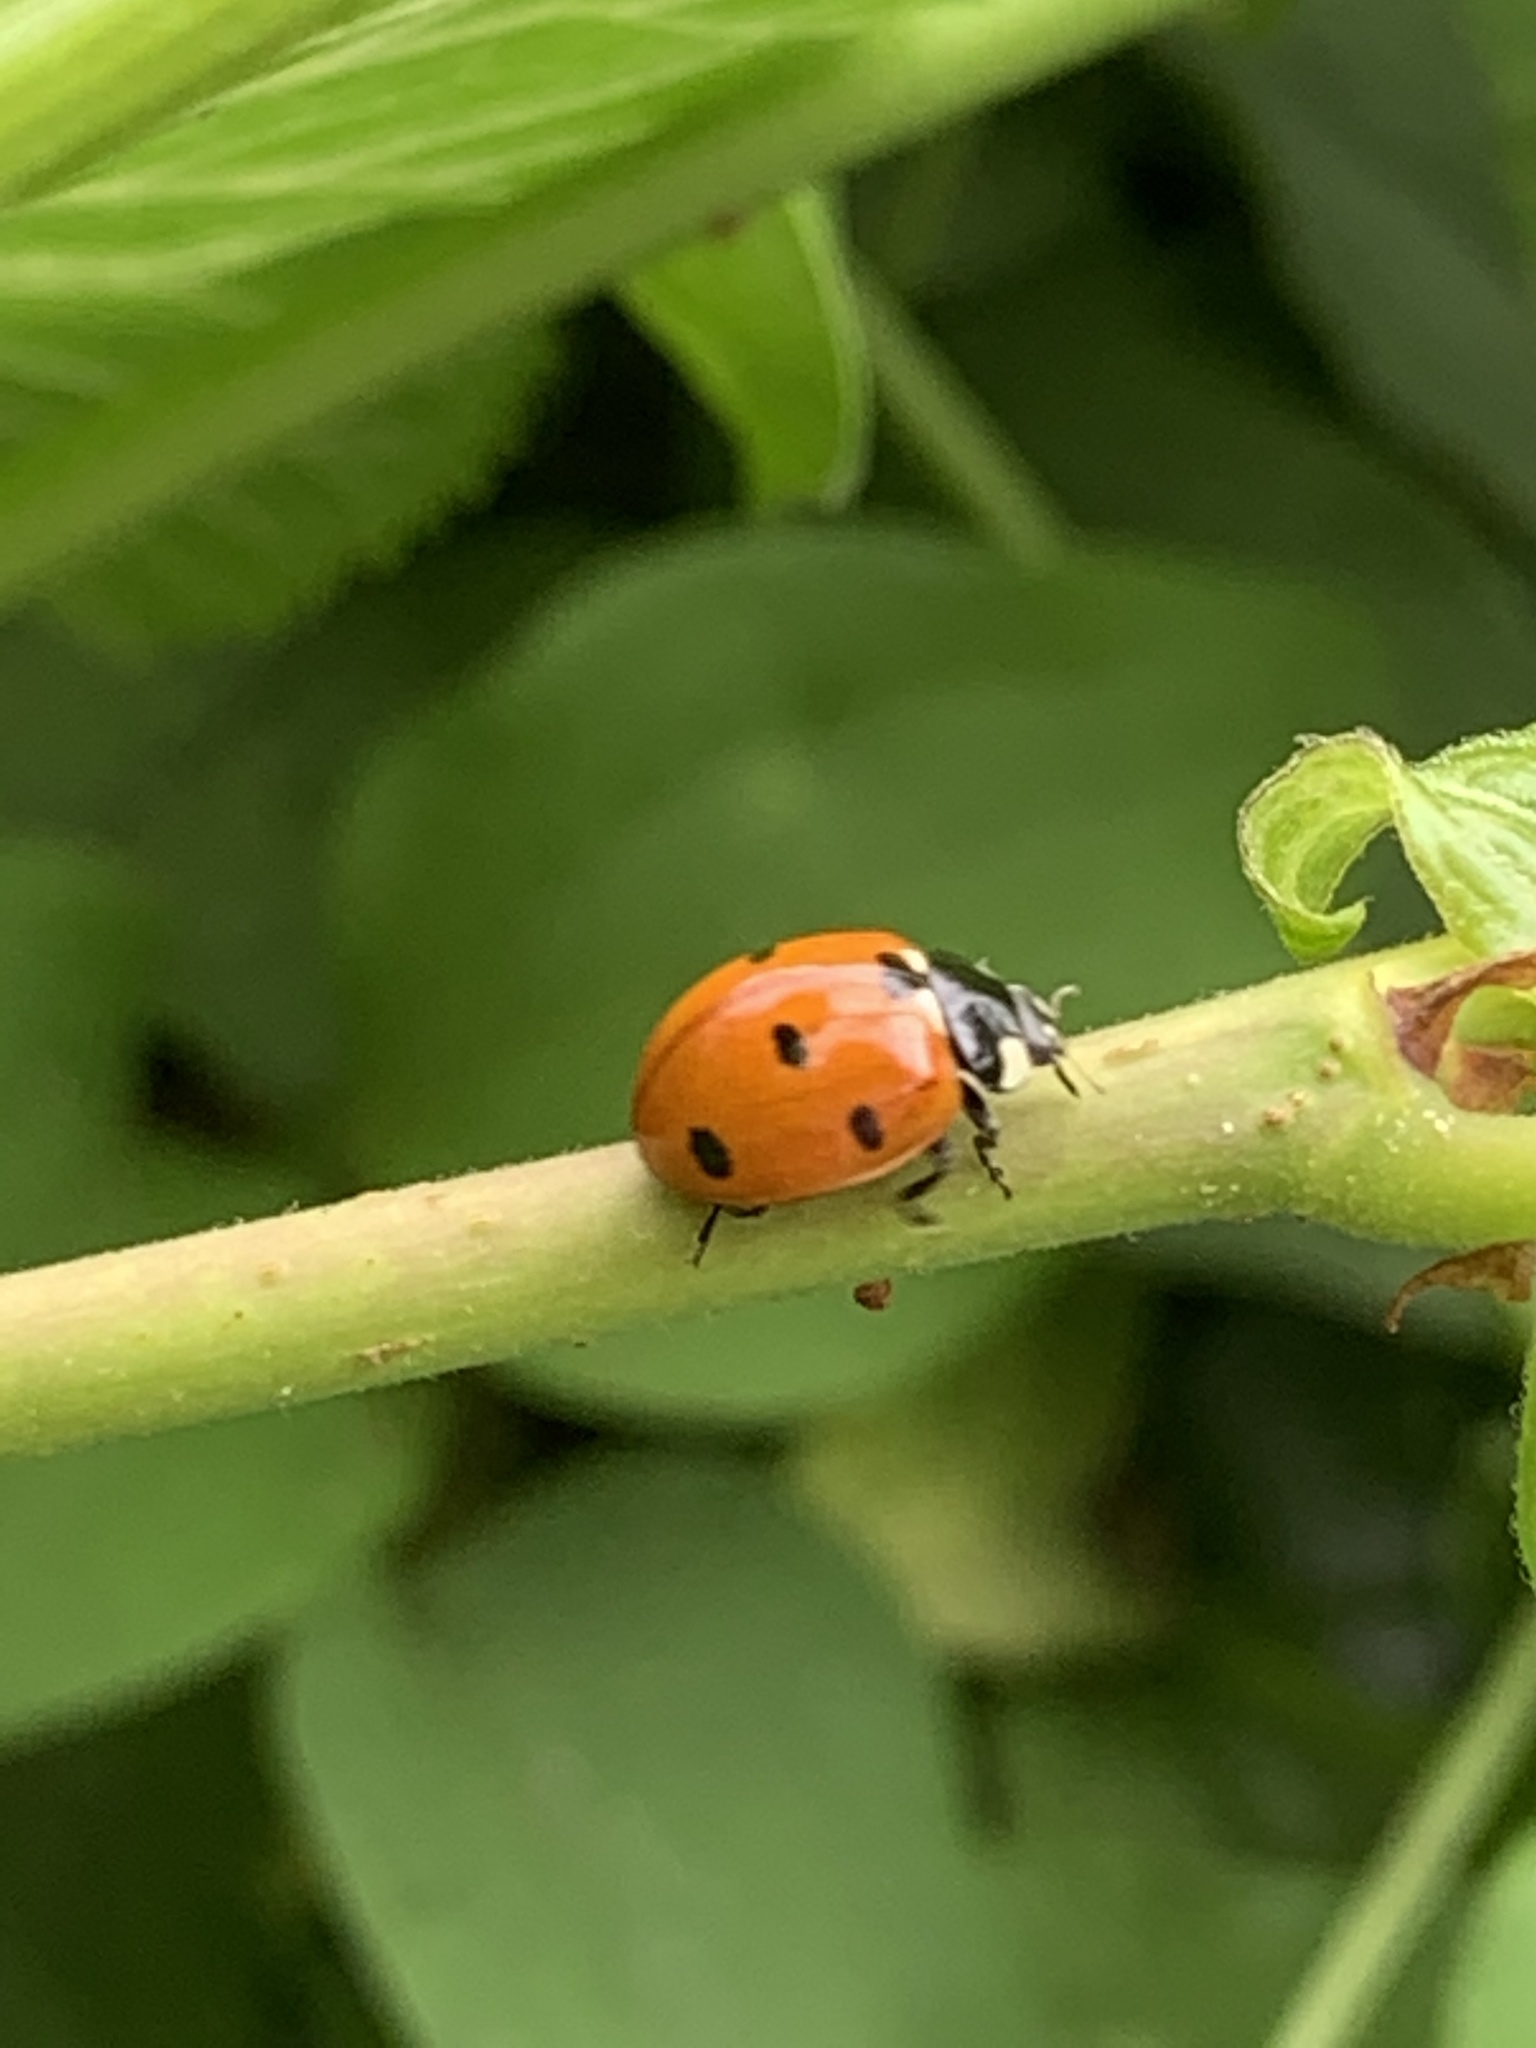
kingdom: Animalia
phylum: Arthropoda
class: Insecta
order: Coleoptera
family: Coccinellidae
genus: Coccinella
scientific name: Coccinella septempunctata
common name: Sevenspotted lady beetle
